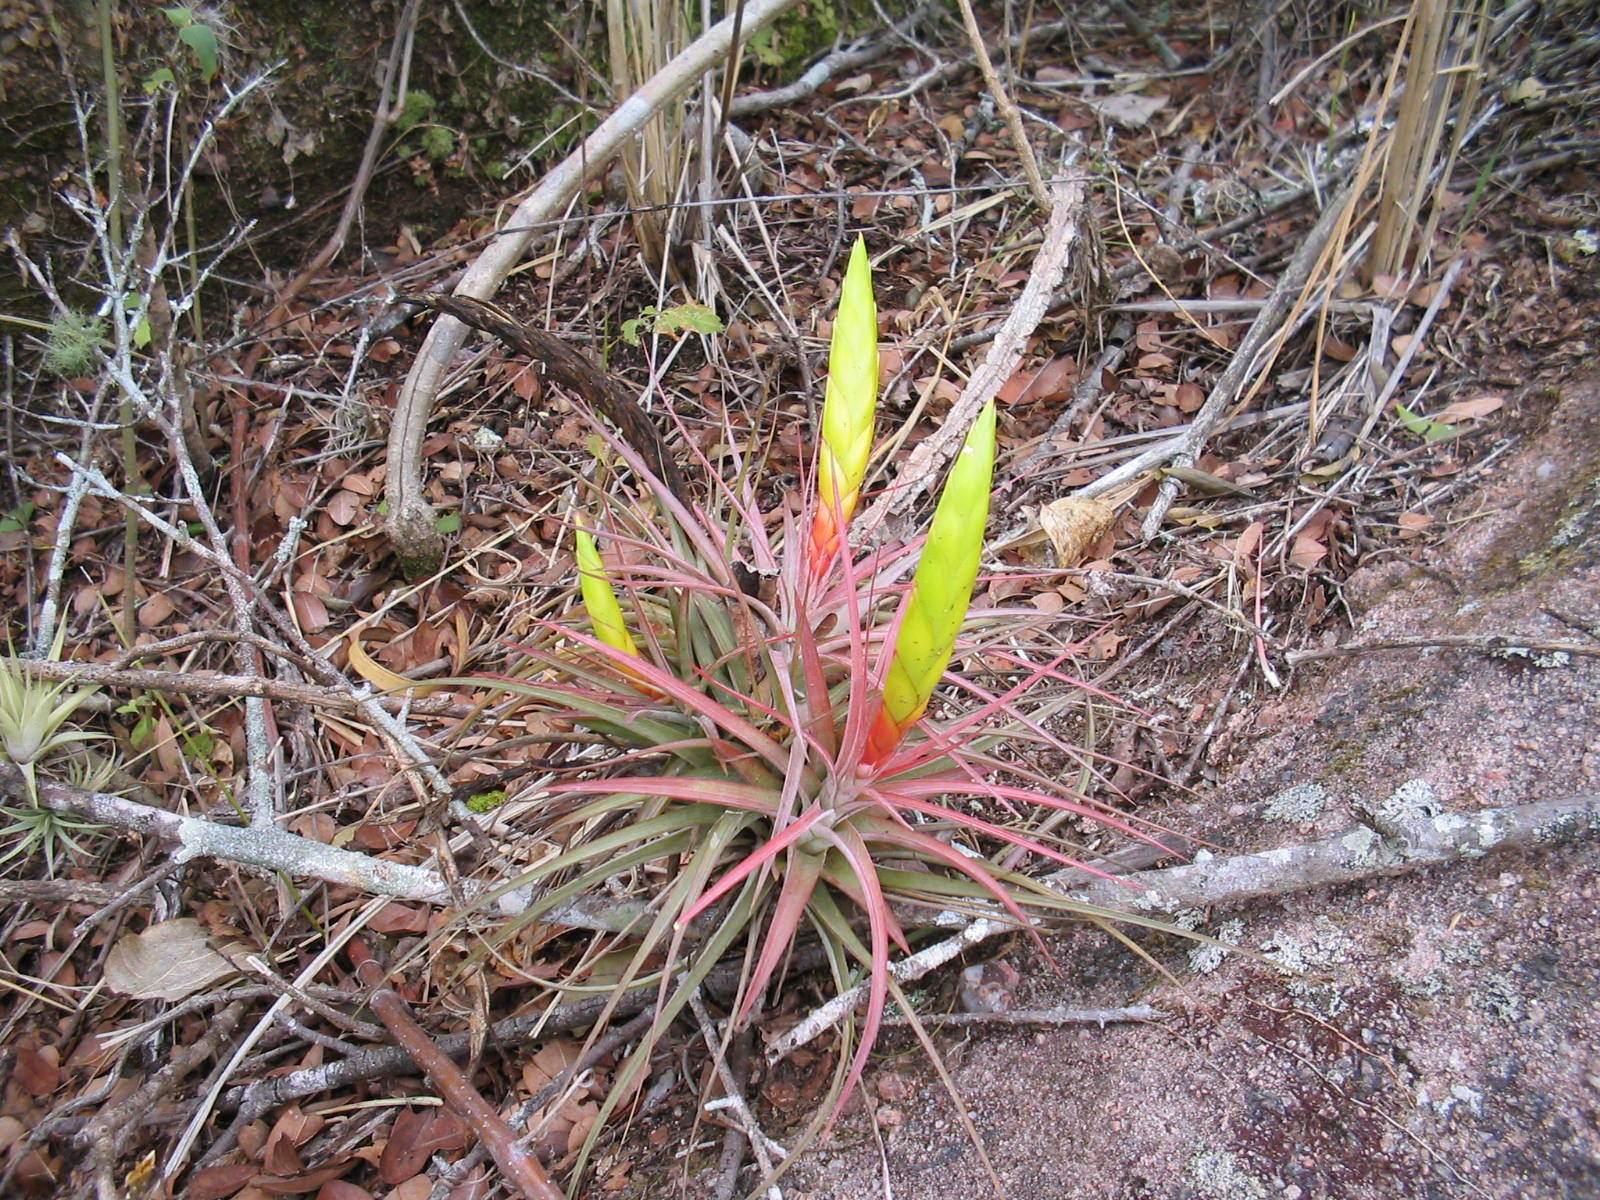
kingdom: Plantae
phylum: Tracheophyta
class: Liliopsida
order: Poales
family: Bromeliaceae
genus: Tillandsia
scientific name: Tillandsia concolor
